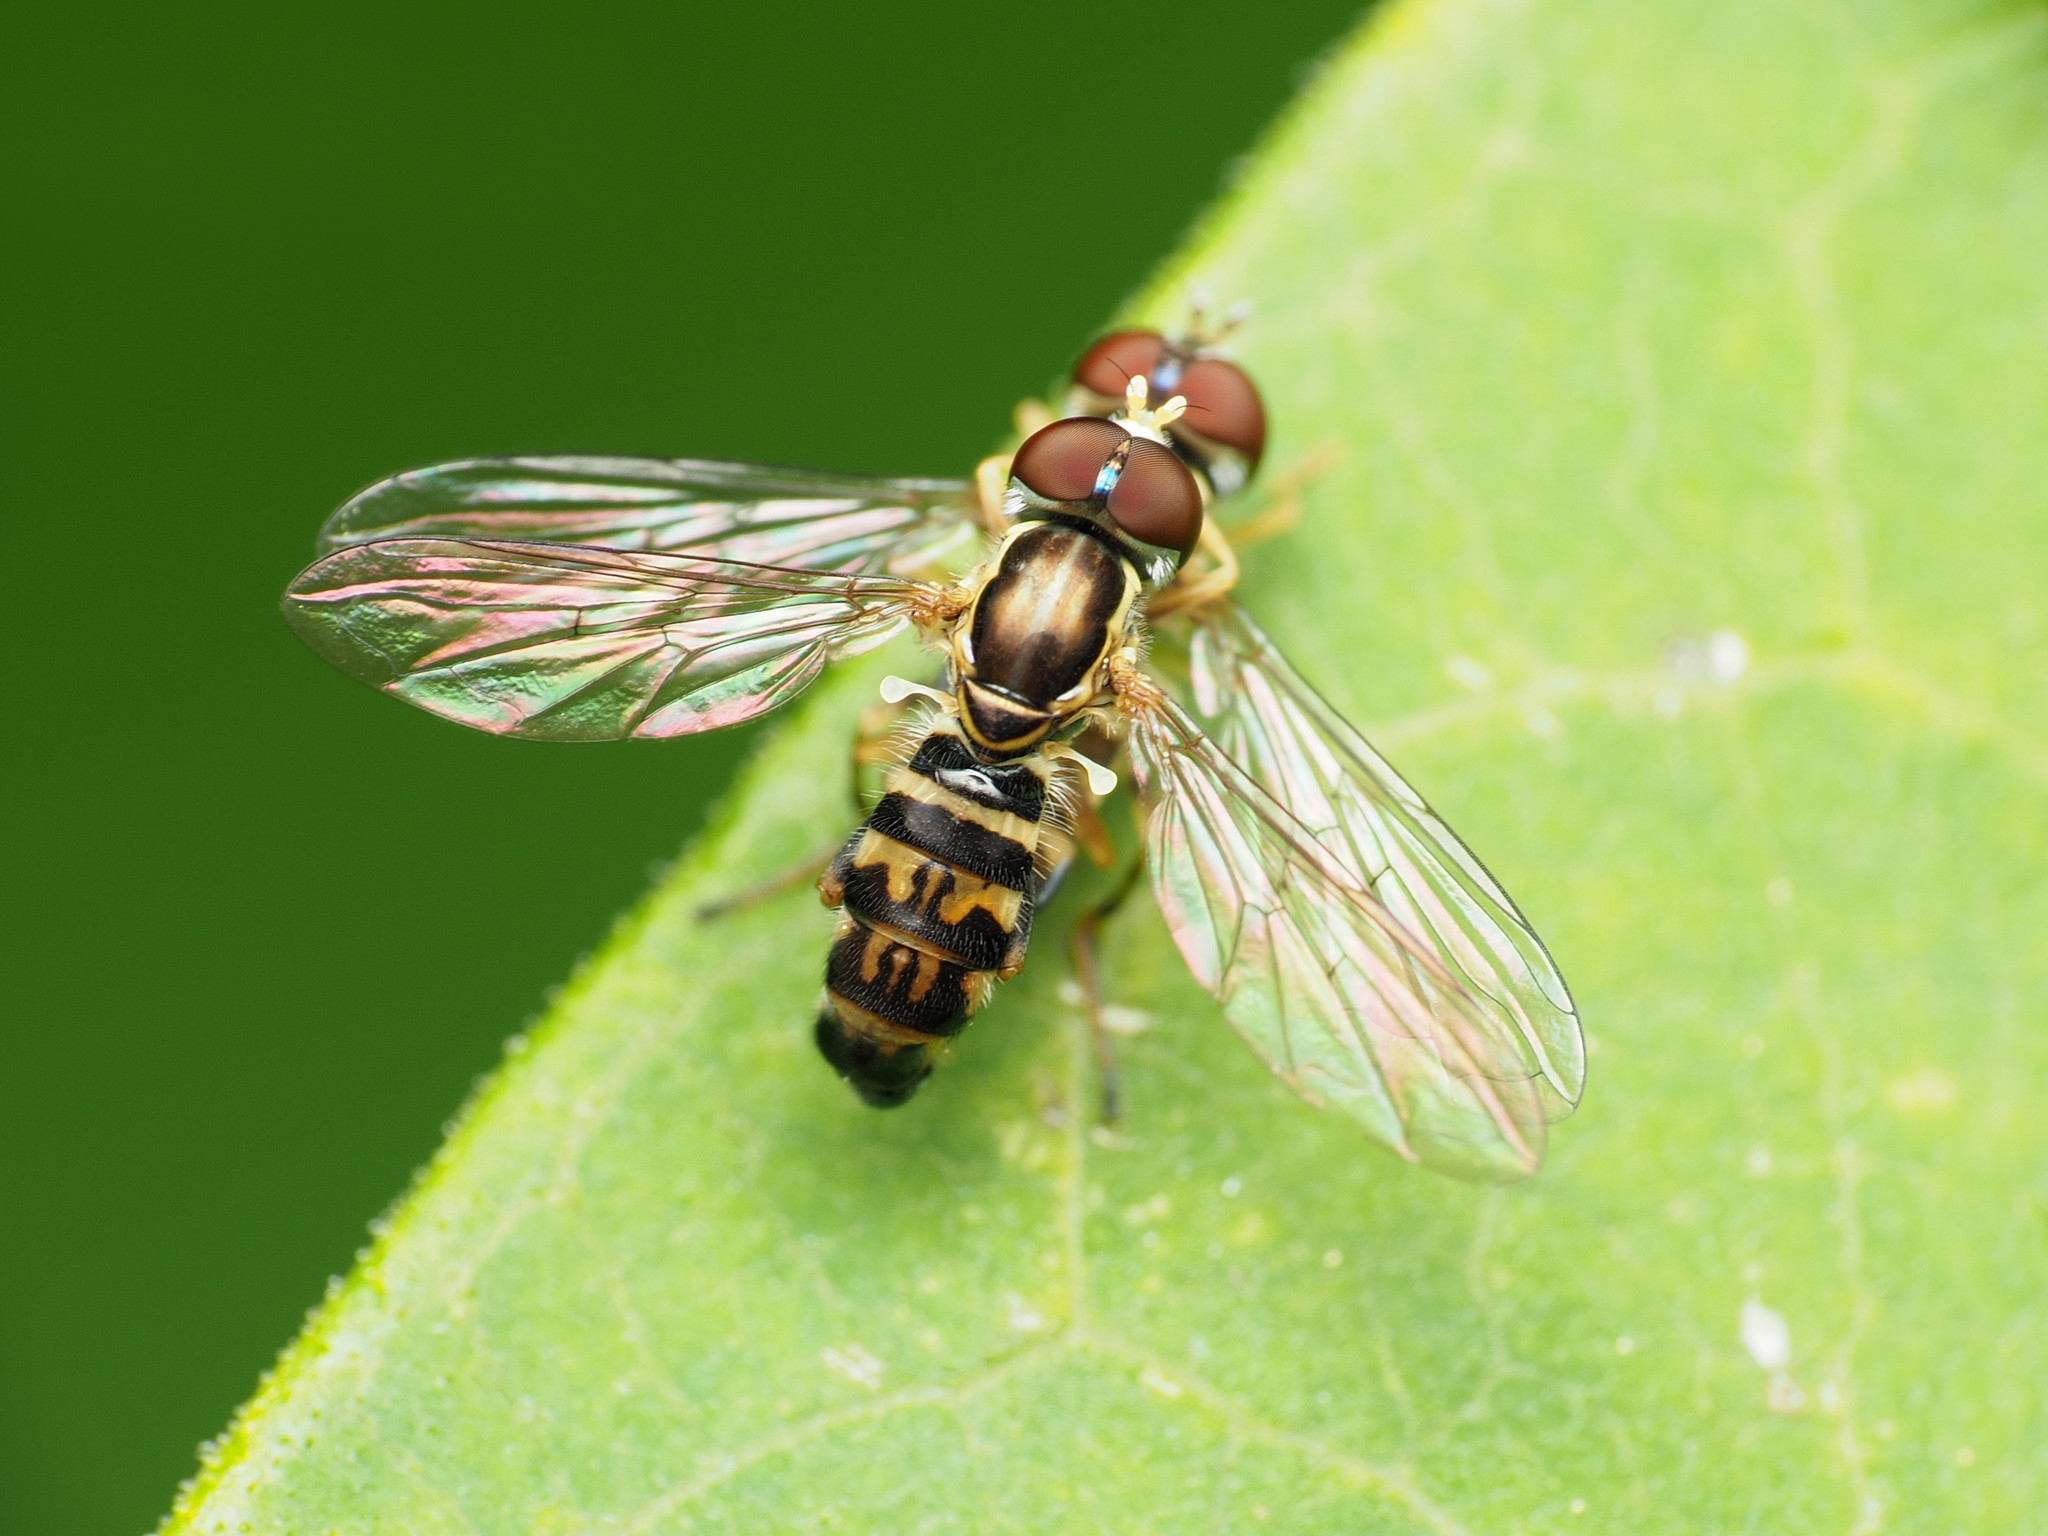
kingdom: Animalia
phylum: Arthropoda
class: Insecta
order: Diptera
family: Syrphidae
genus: Toxomerus
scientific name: Toxomerus geminatus
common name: Eastern calligrapher
